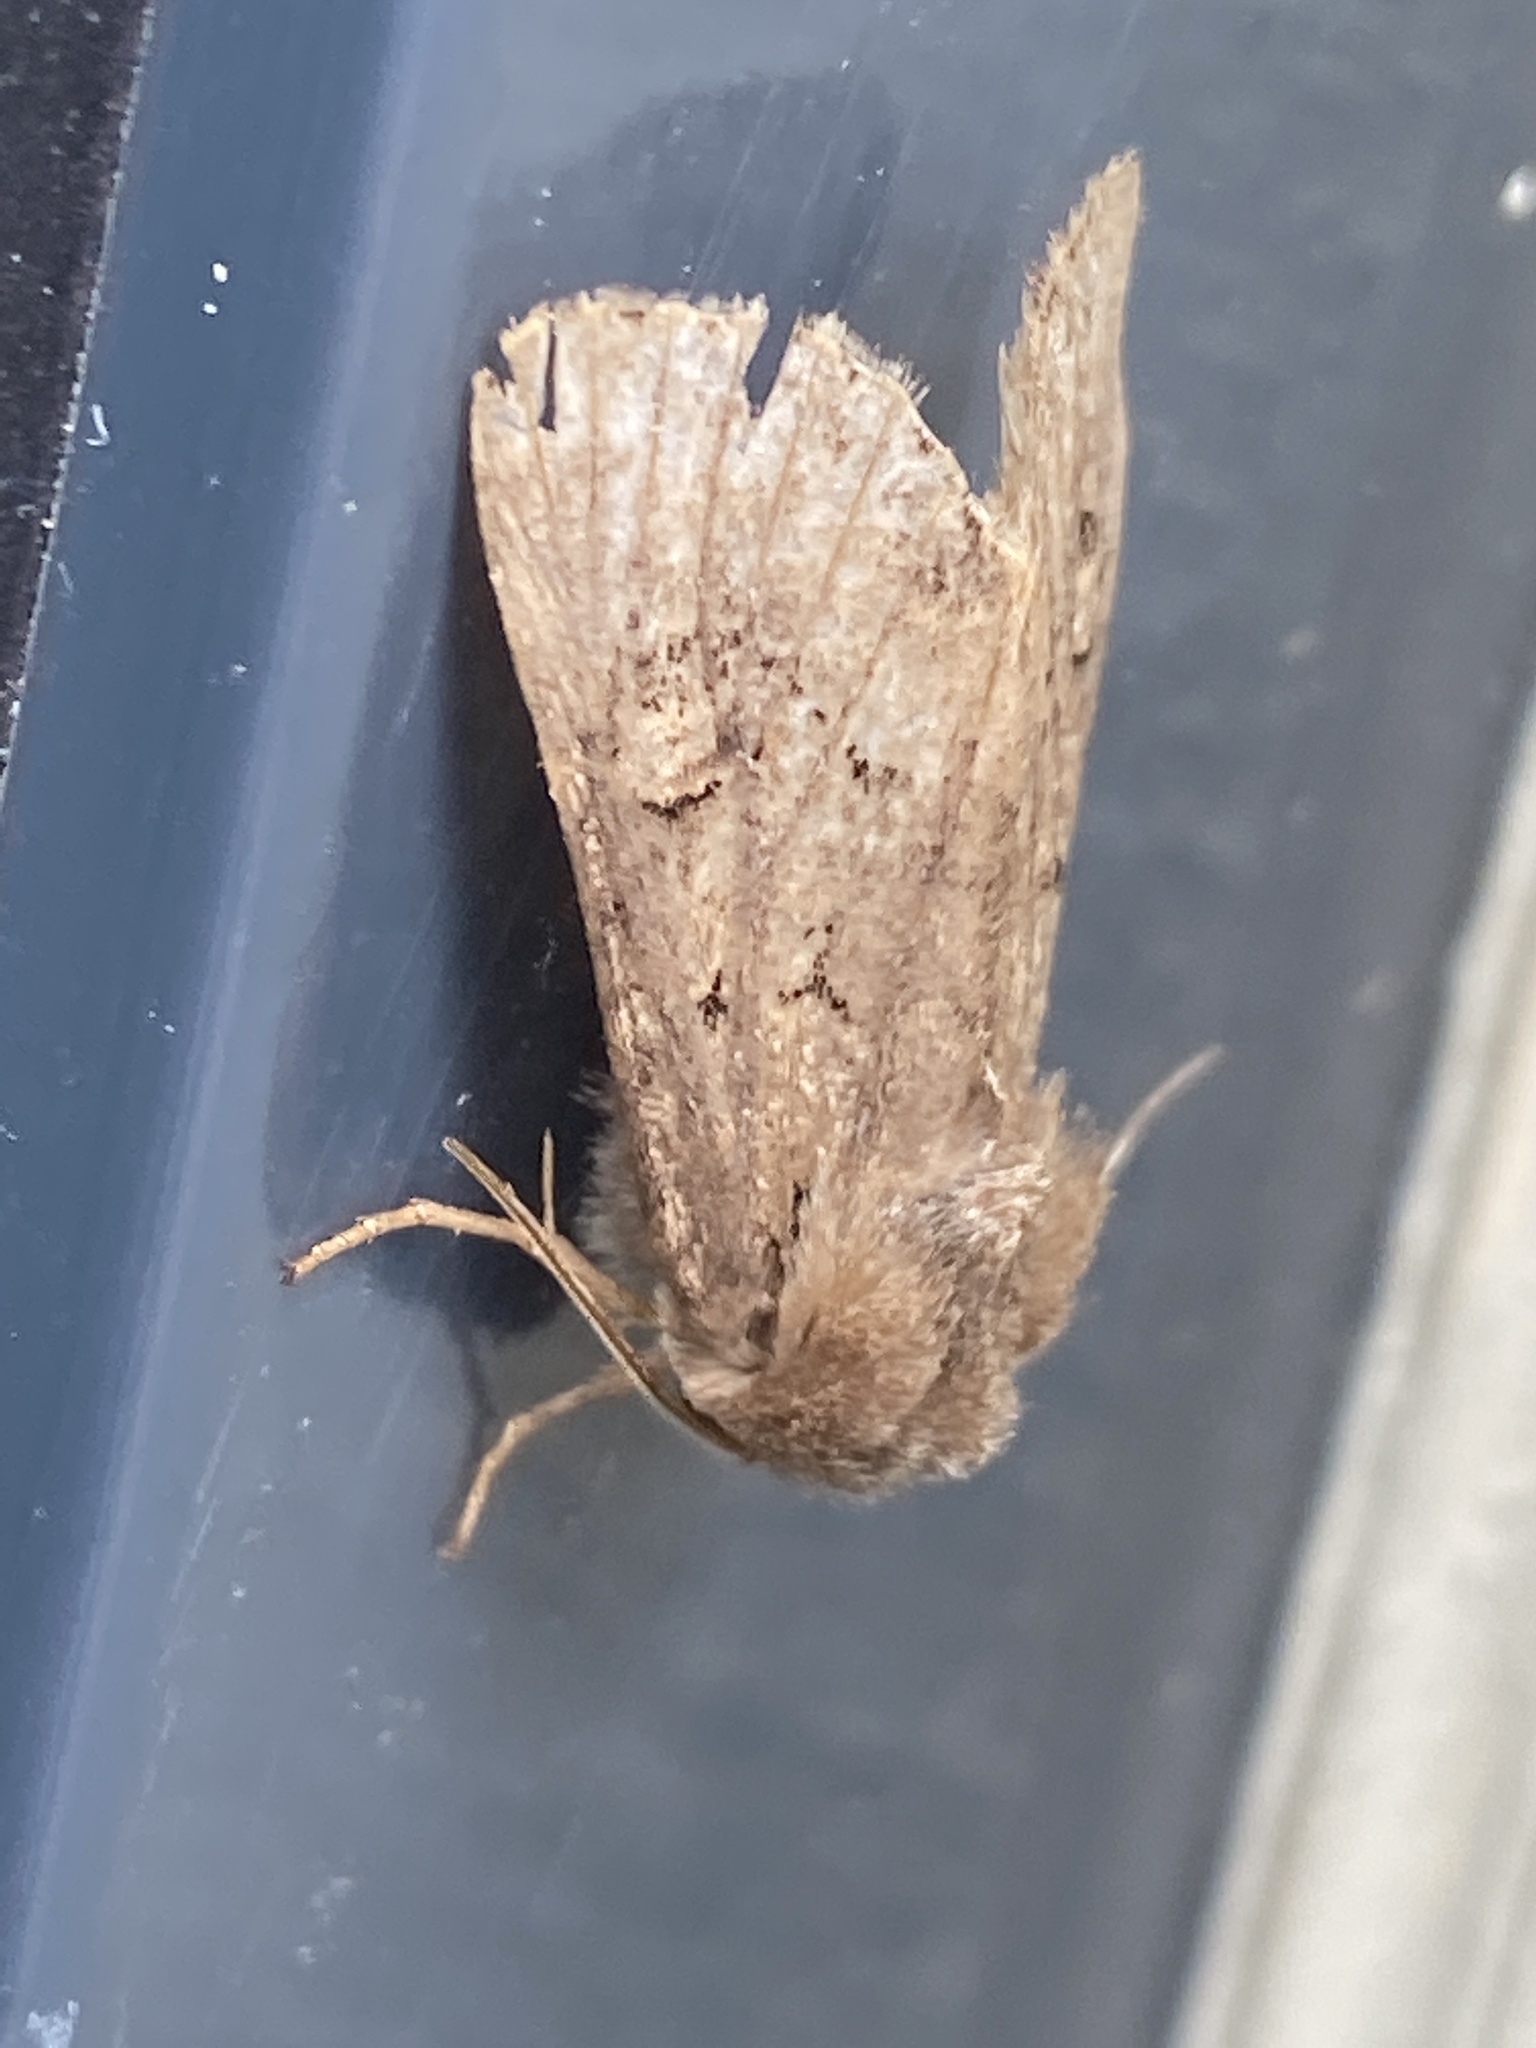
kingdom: Animalia
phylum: Arthropoda
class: Insecta
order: Lepidoptera
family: Noctuidae
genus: Luperina
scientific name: Luperina testacea
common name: Flounced rustic
